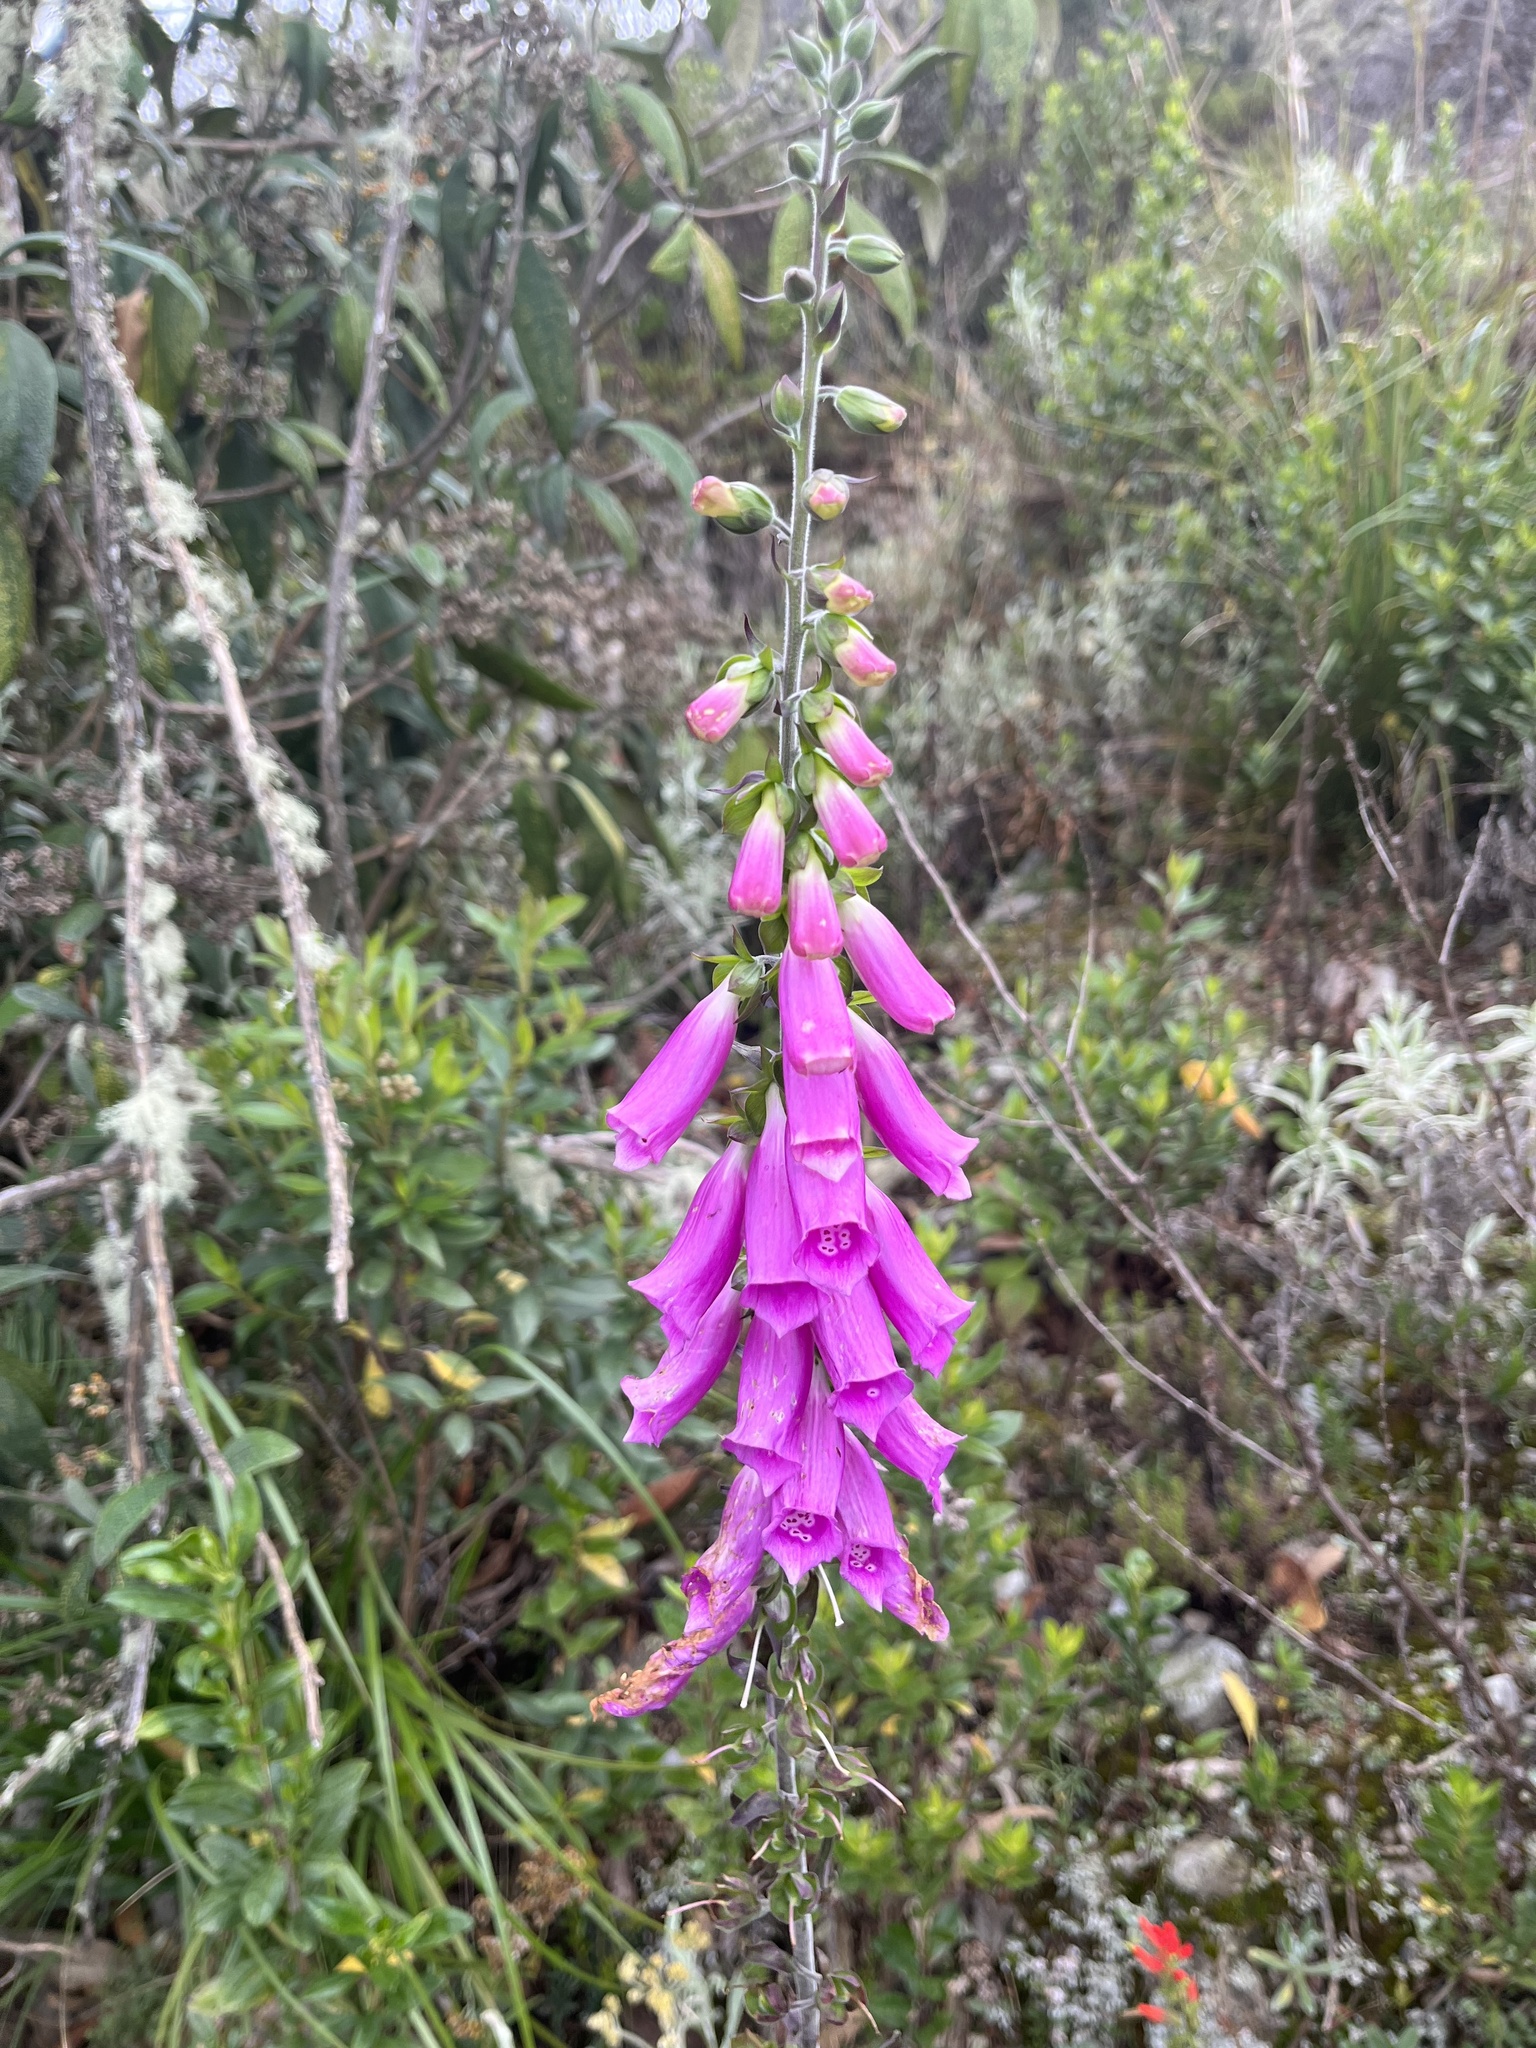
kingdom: Plantae
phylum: Tracheophyta
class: Magnoliopsida
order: Lamiales
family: Plantaginaceae
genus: Digitalis
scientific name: Digitalis purpurea
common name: Foxglove
